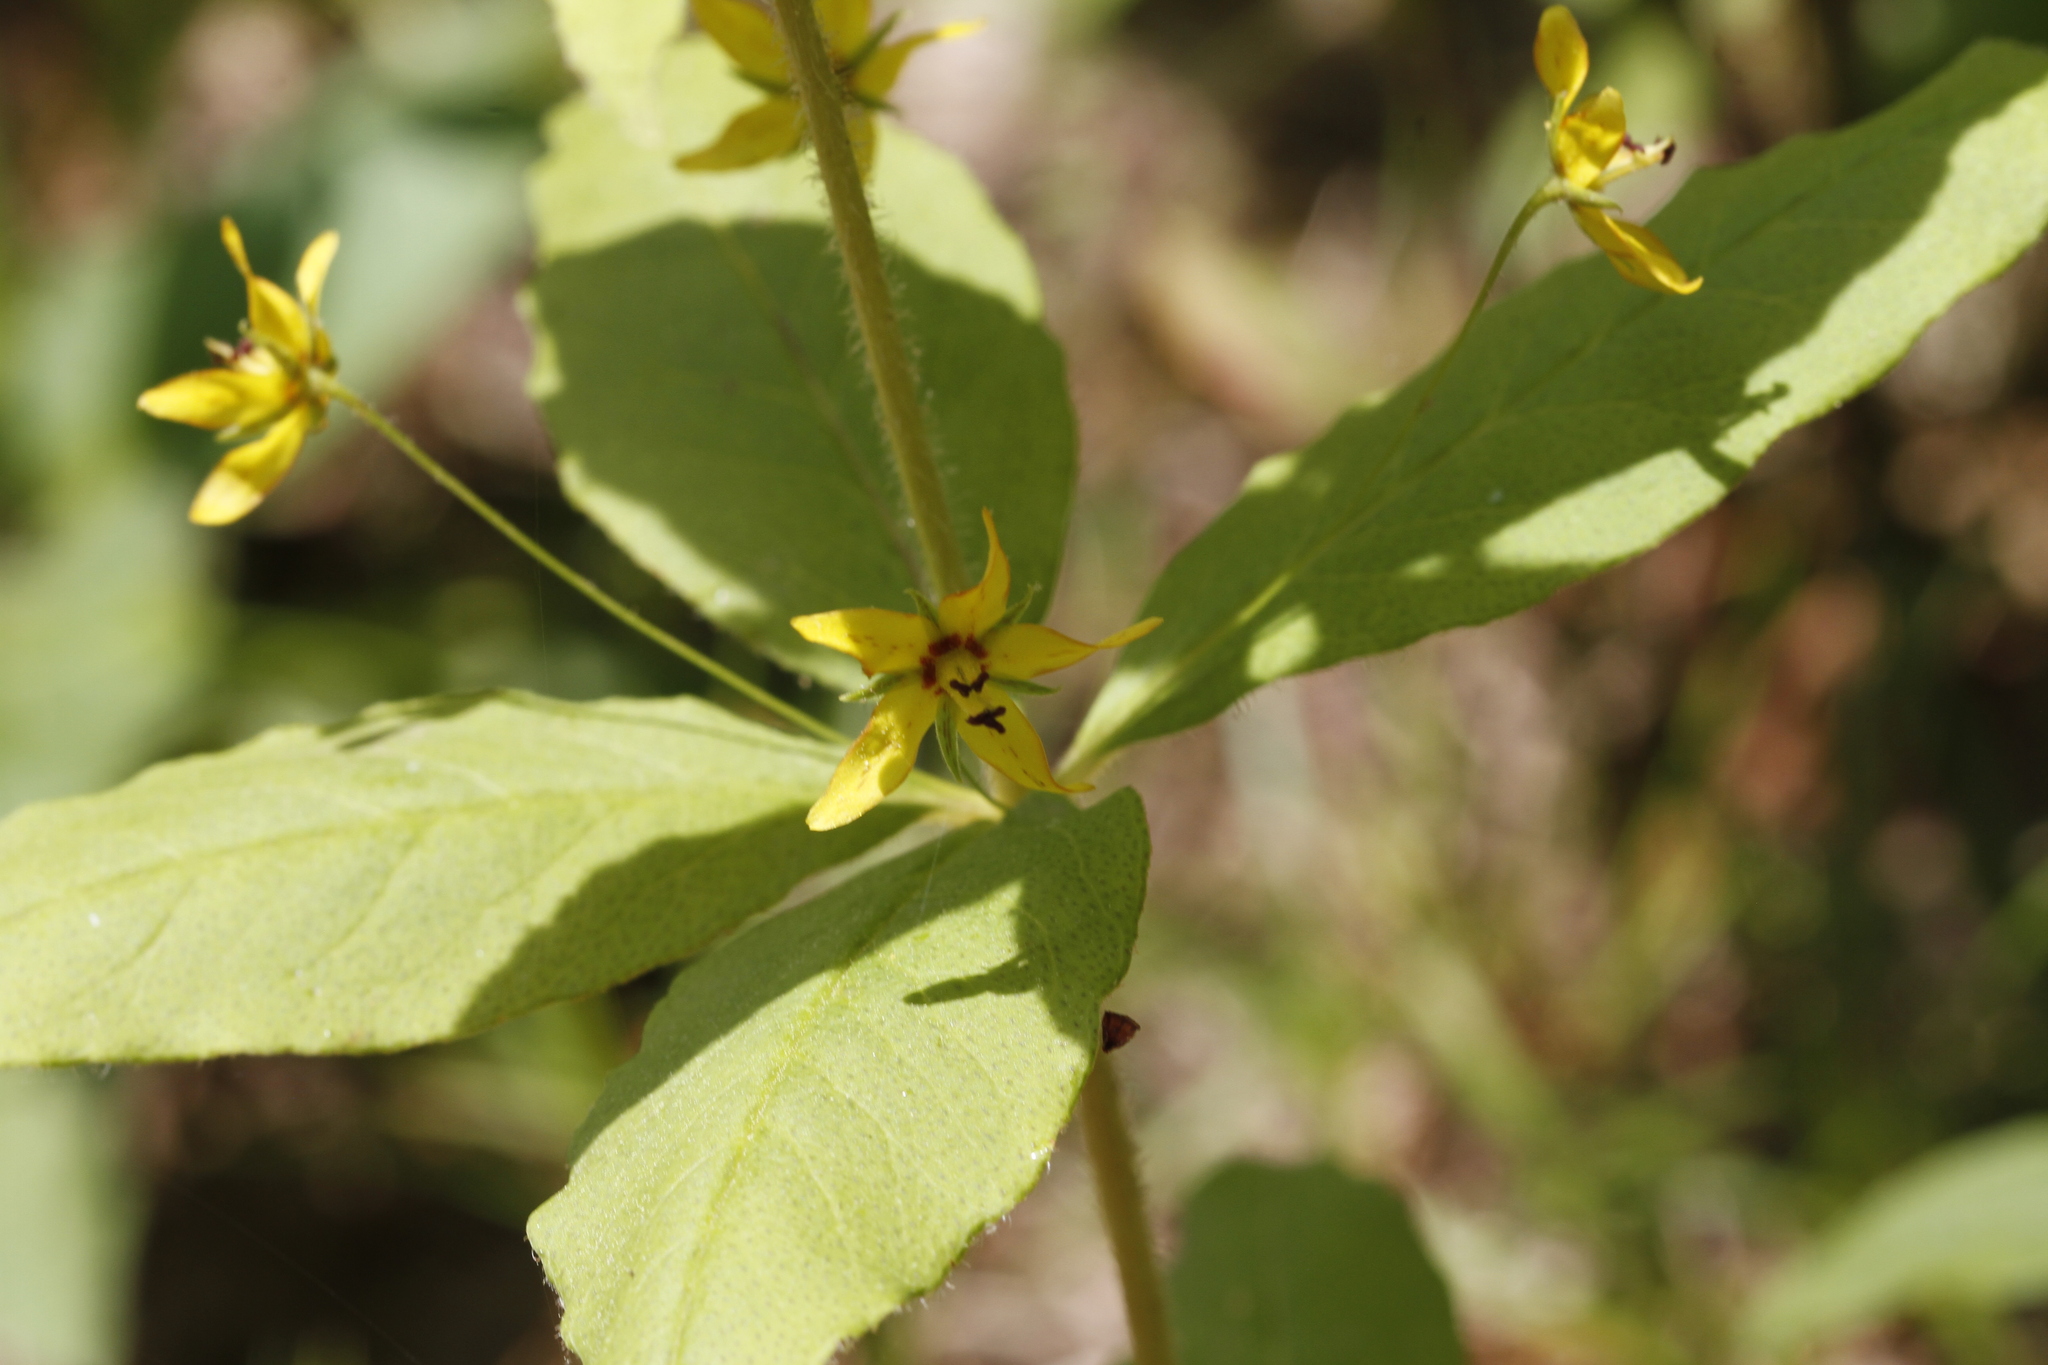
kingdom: Plantae
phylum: Tracheophyta
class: Magnoliopsida
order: Ericales
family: Primulaceae
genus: Lysimachia
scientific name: Lysimachia quadrifolia
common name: Whorled loosestrife
